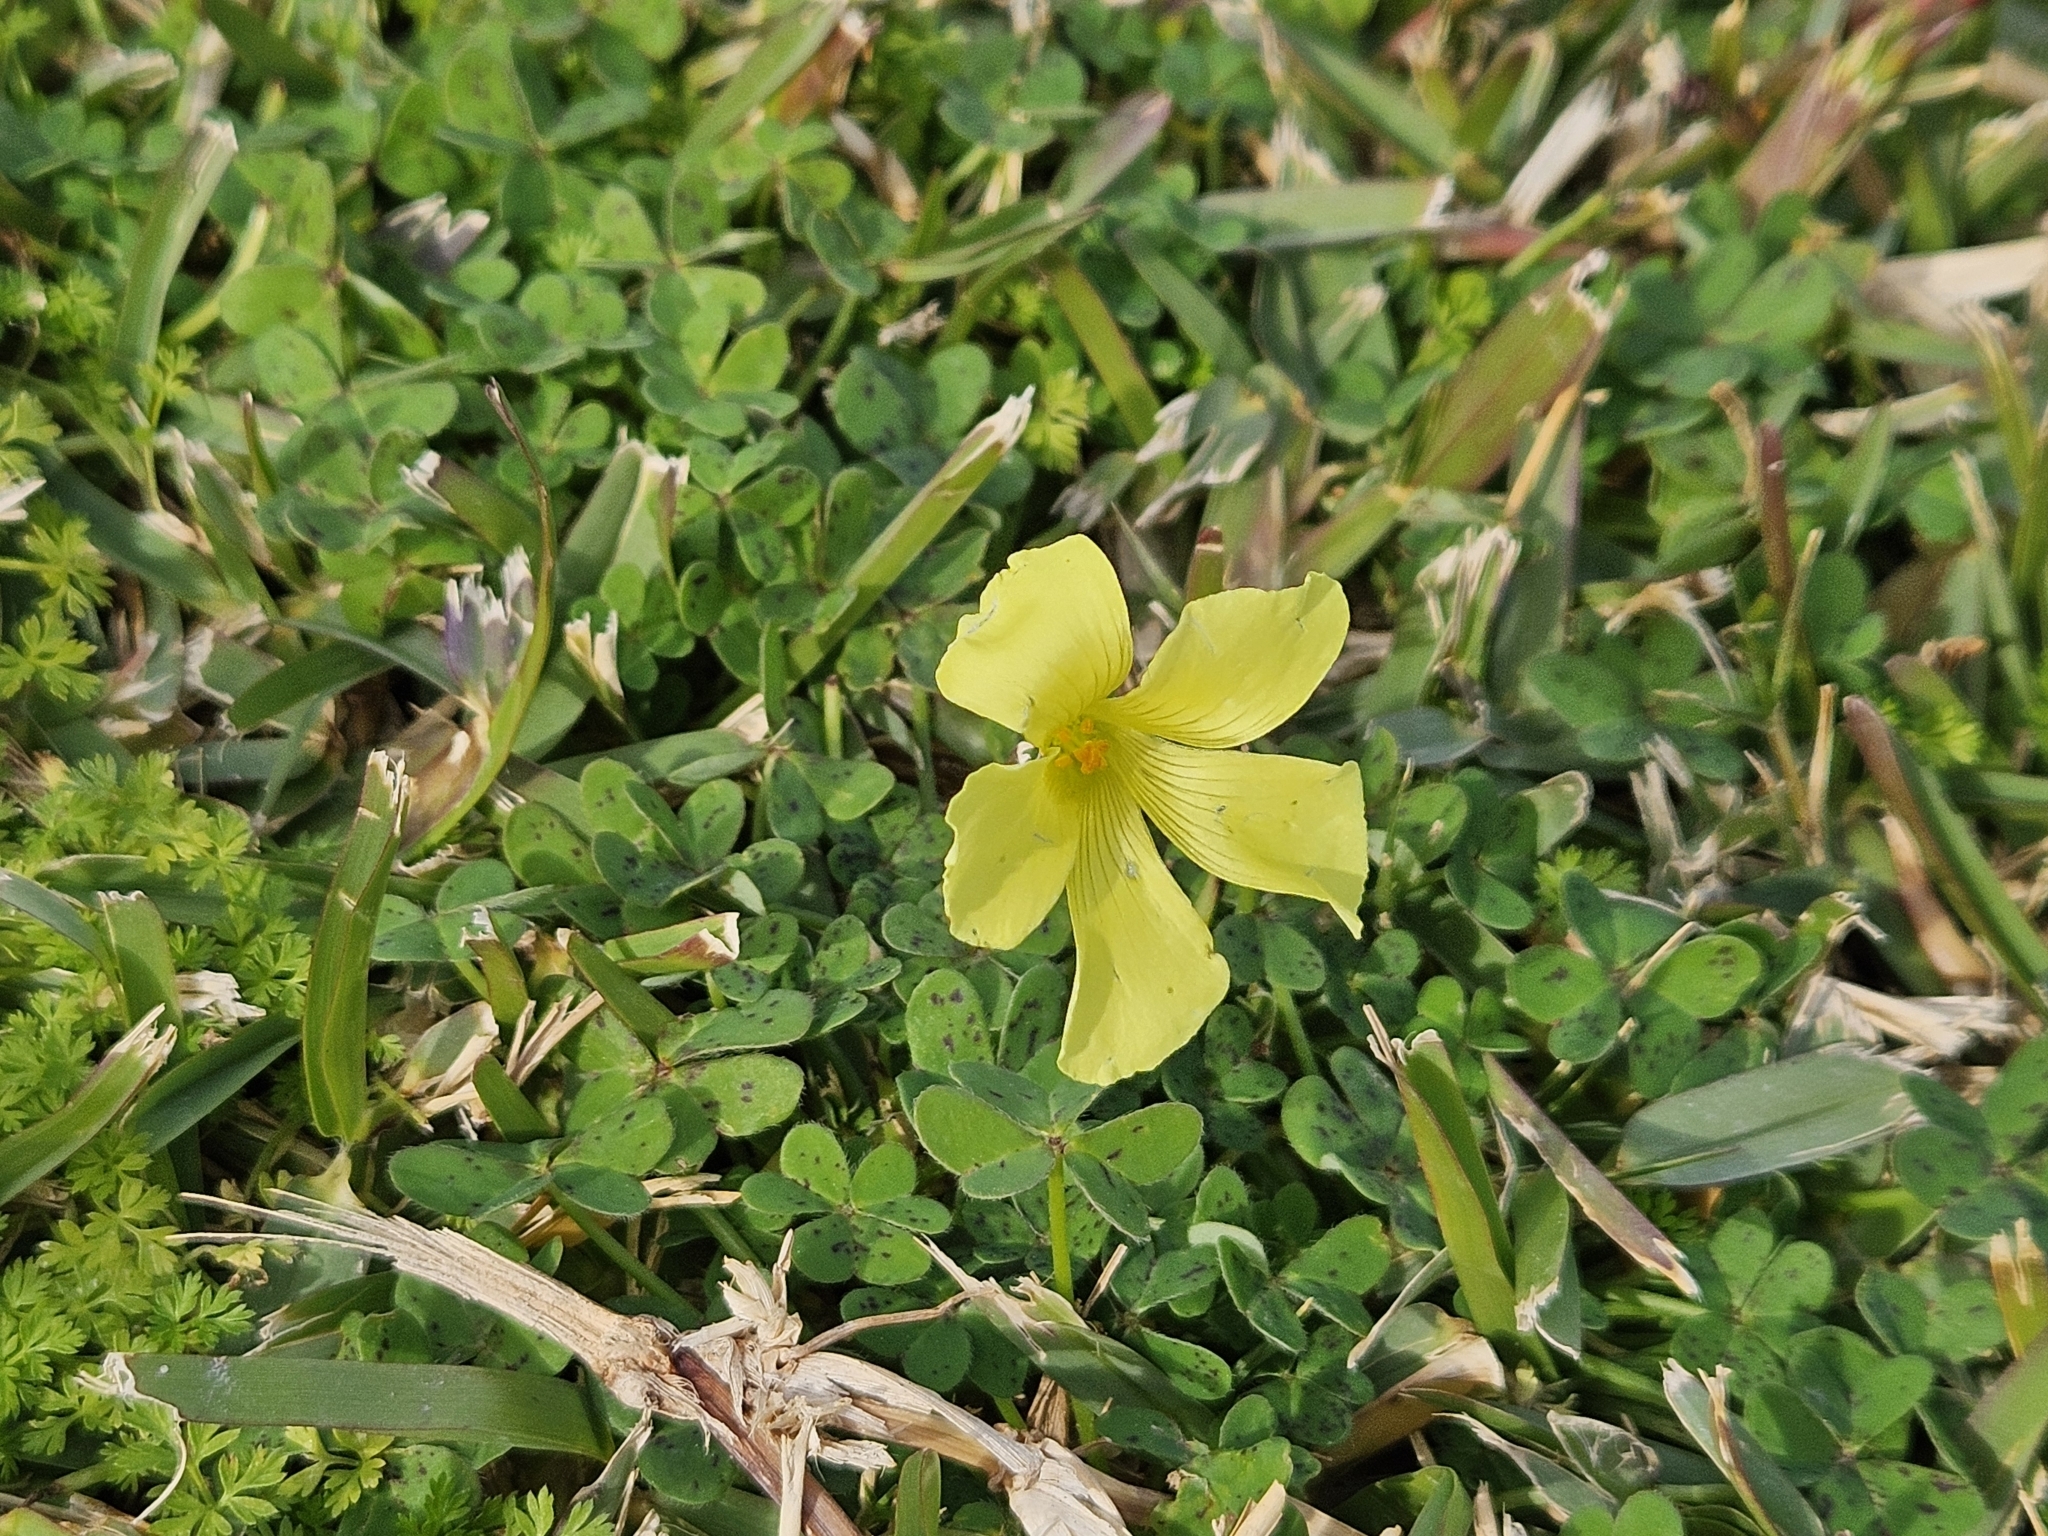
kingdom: Plantae
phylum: Tracheophyta
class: Magnoliopsida
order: Oxalidales
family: Oxalidaceae
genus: Oxalis
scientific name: Oxalis pes-caprae
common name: Bermuda-buttercup
